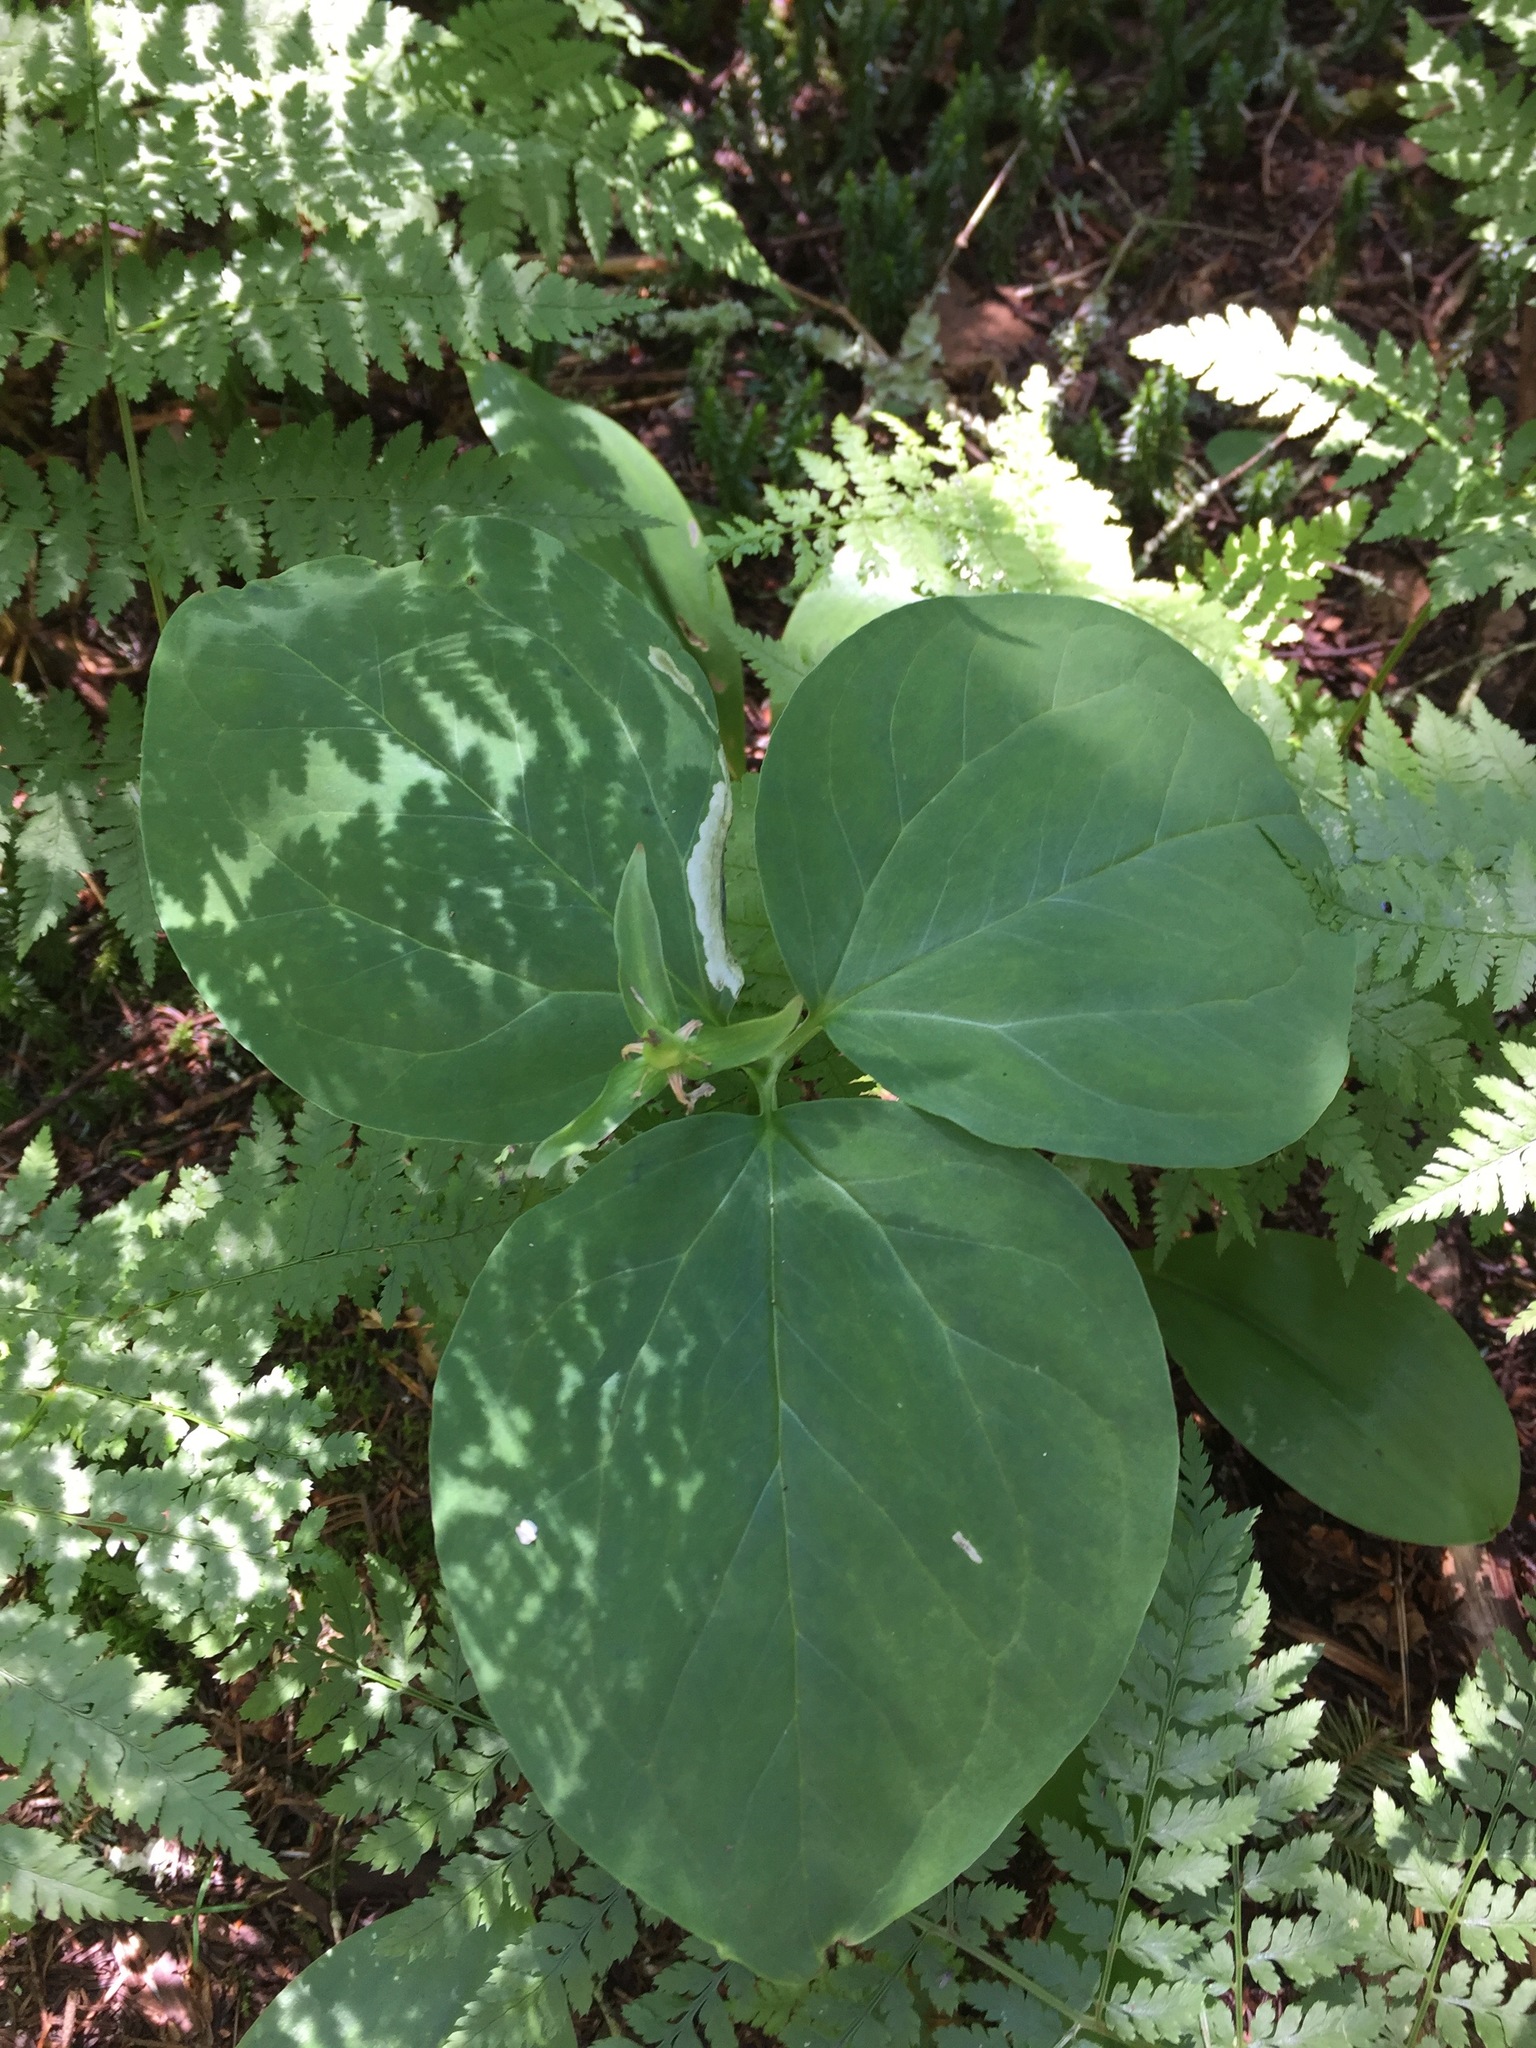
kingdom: Plantae
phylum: Tracheophyta
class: Liliopsida
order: Liliales
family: Melanthiaceae
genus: Trillium
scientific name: Trillium undulatum
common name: Paint trillium
